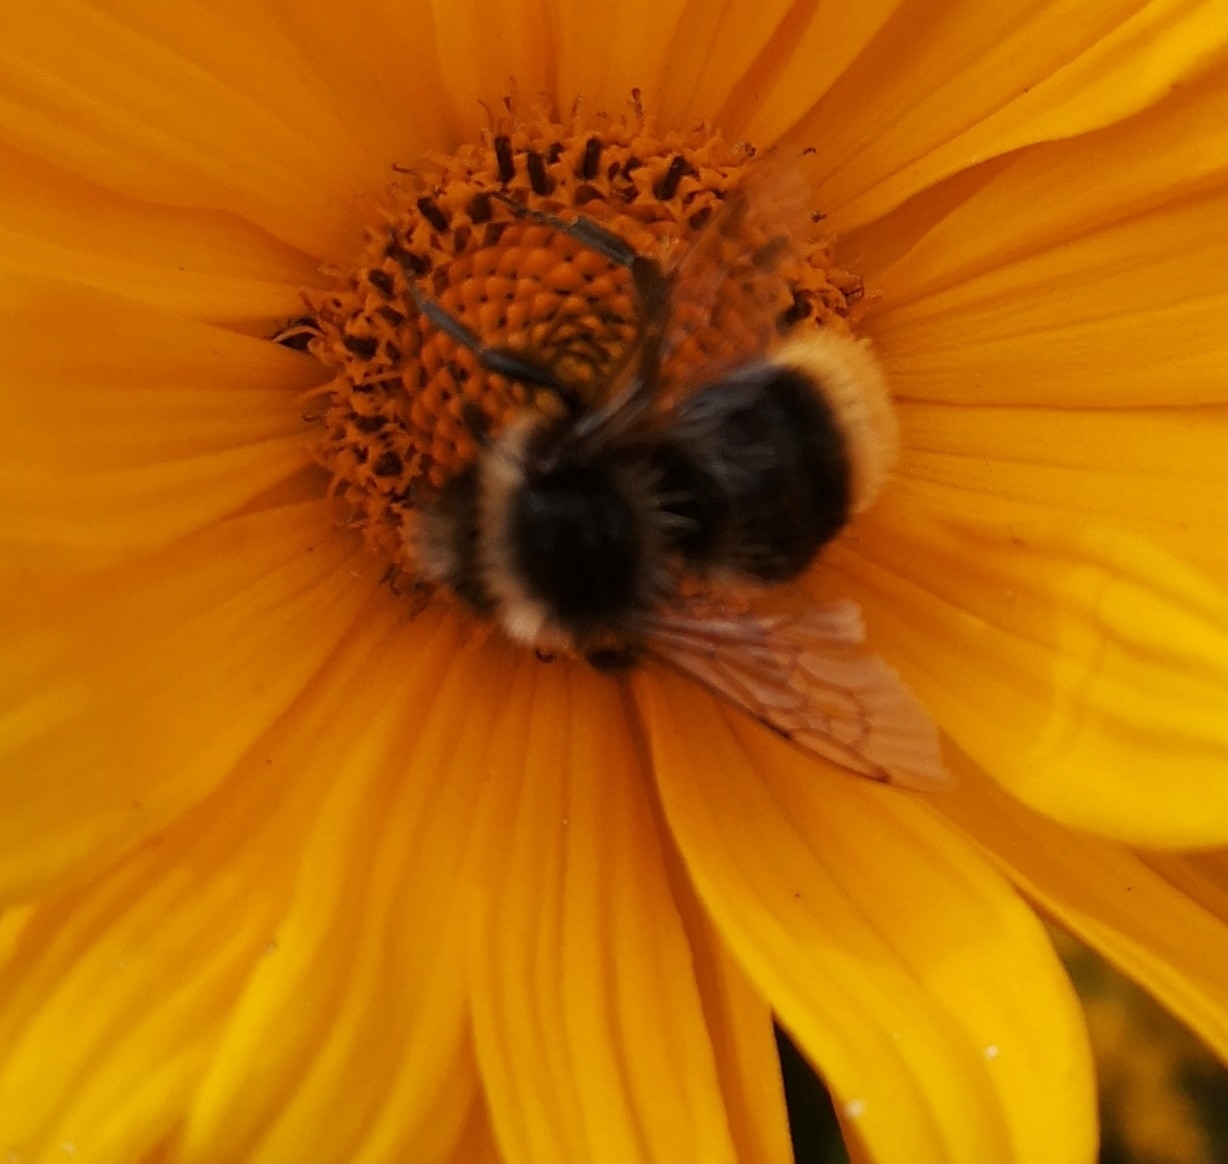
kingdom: Animalia
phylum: Arthropoda
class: Insecta
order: Hymenoptera
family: Apidae
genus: Bombus
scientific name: Bombus lapidarius
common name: Large red-tailed humble-bee
